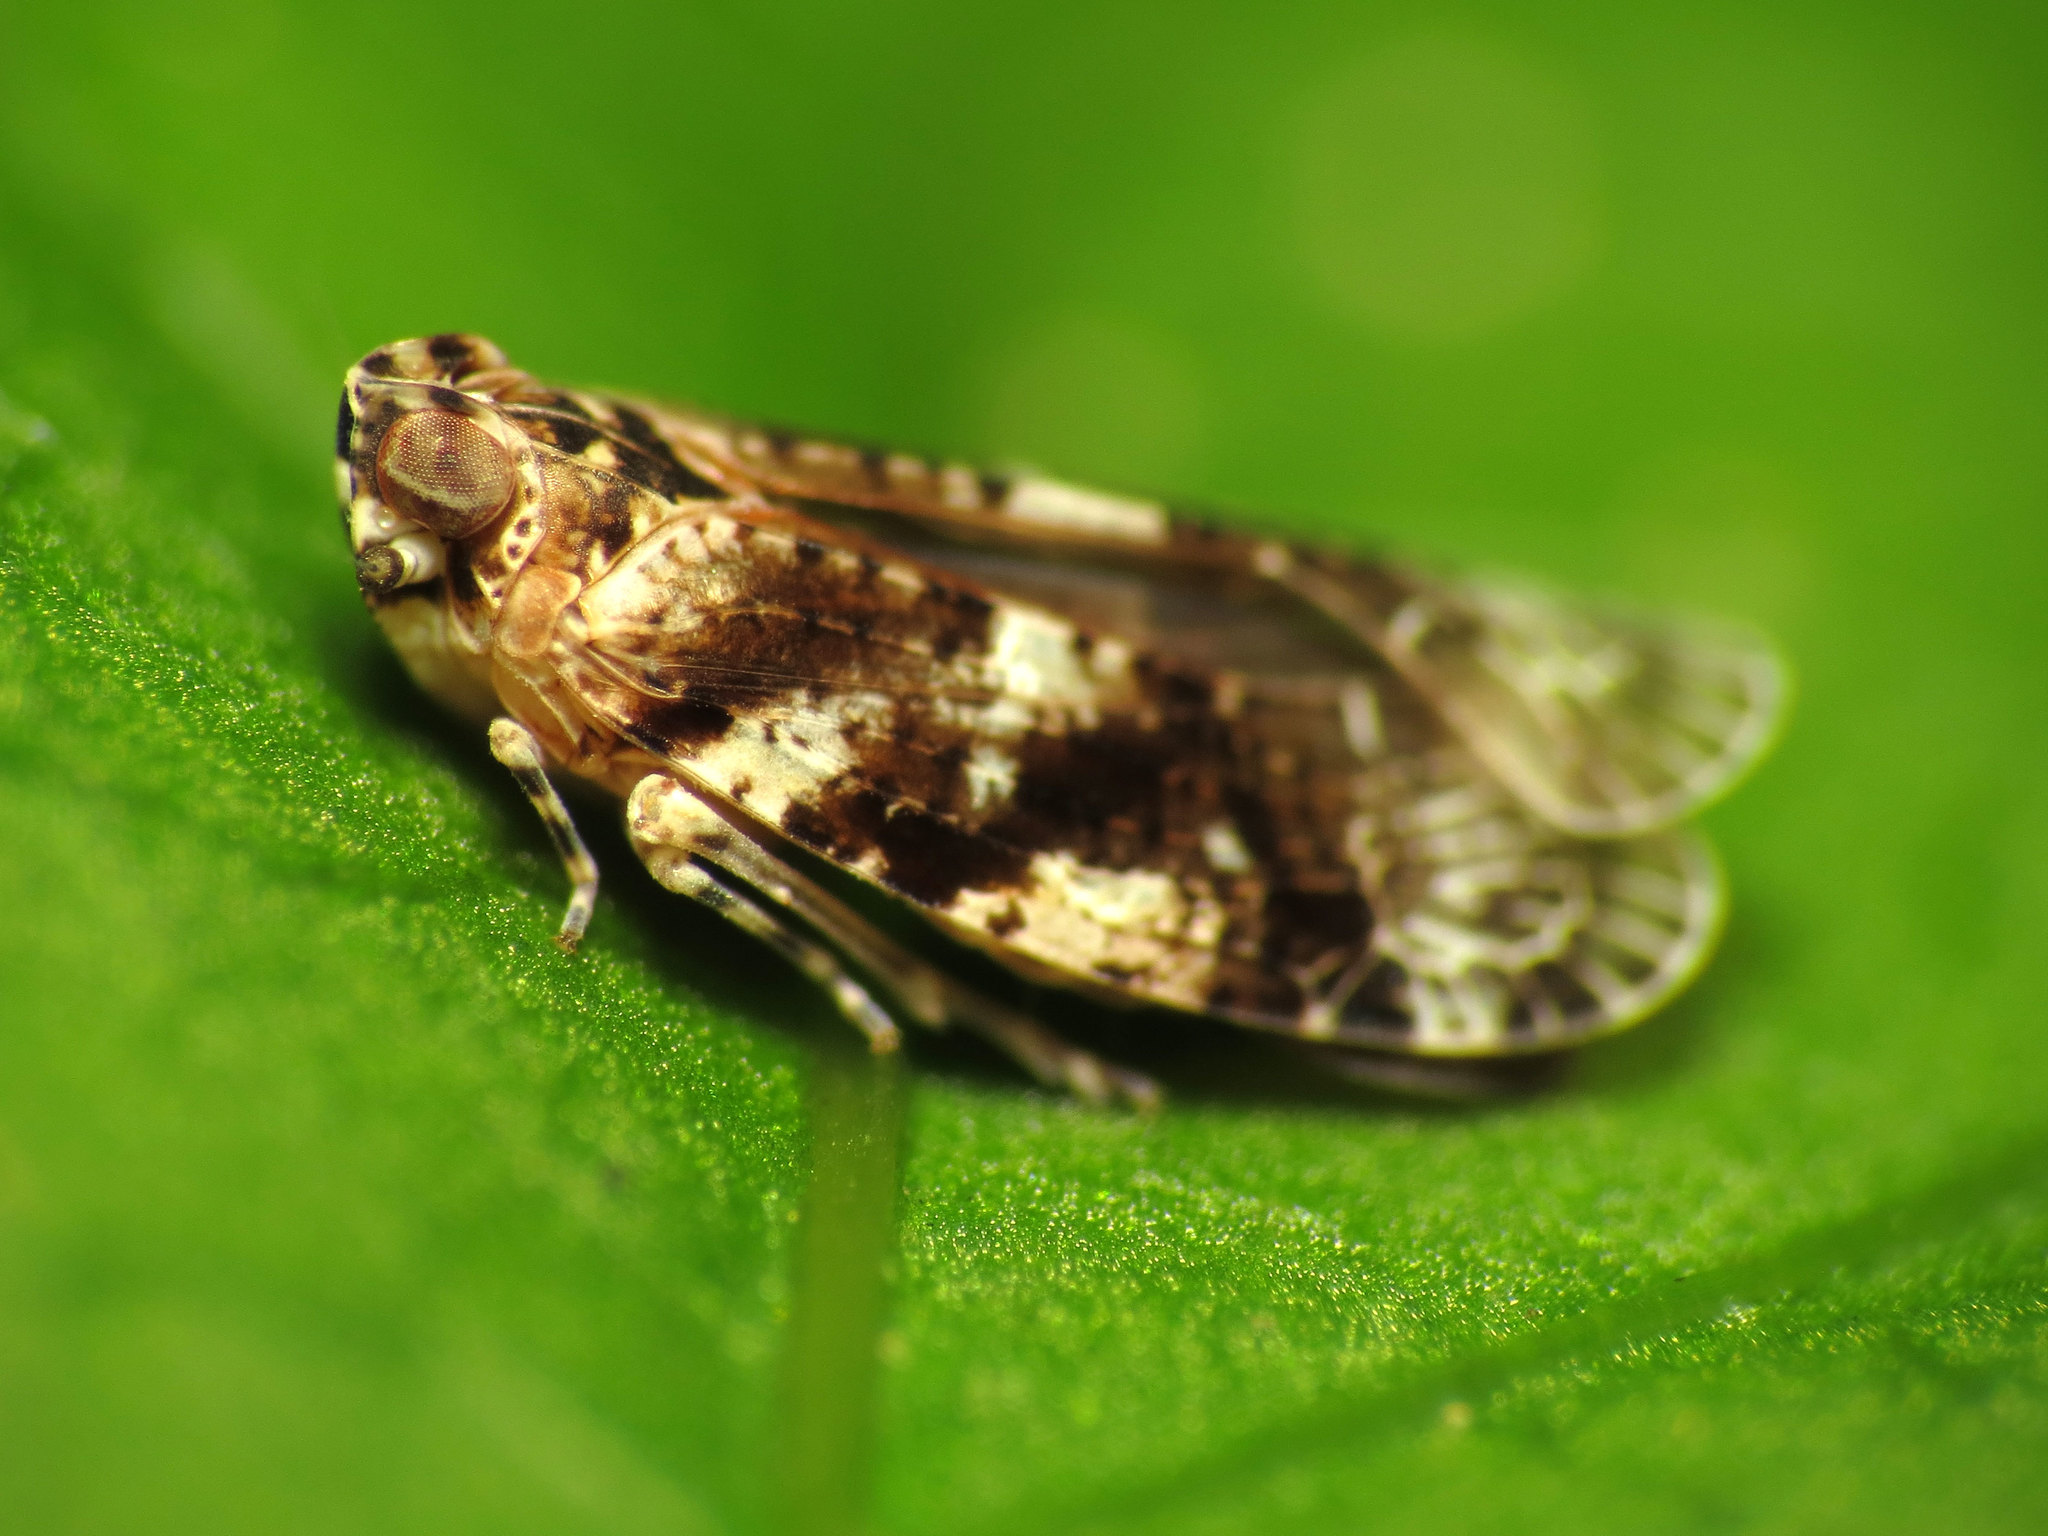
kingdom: Animalia
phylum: Arthropoda
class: Insecta
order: Hemiptera
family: Achilidae
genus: Catonia
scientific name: Catonia cinctifrons
